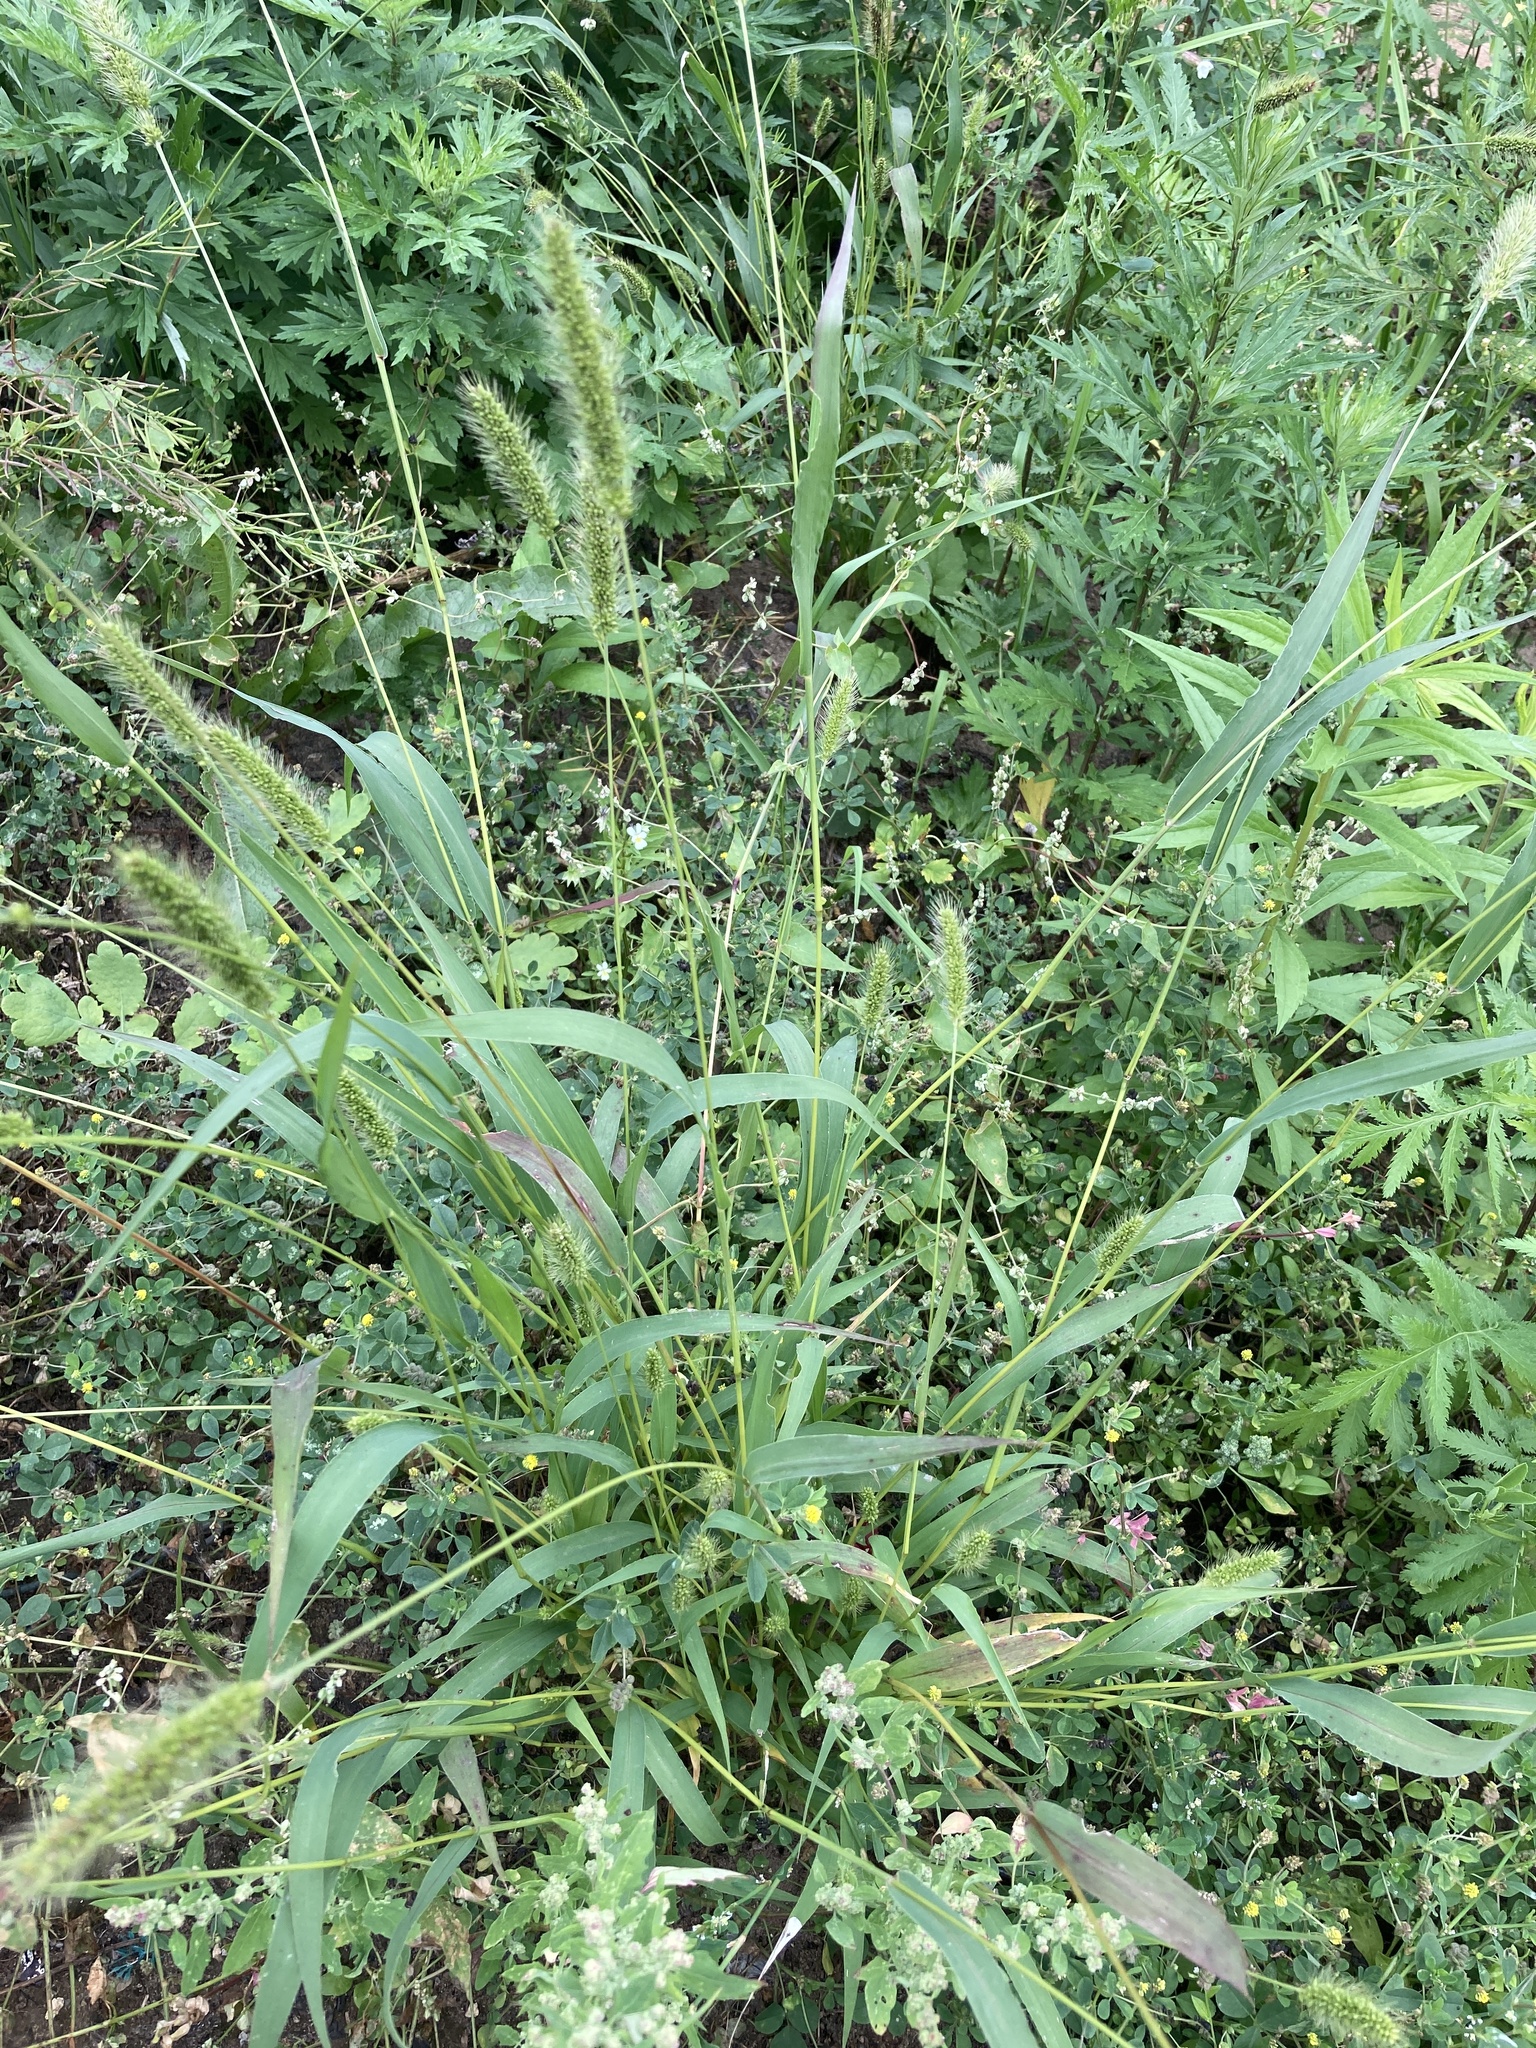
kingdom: Plantae
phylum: Tracheophyta
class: Liliopsida
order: Poales
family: Poaceae
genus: Setaria
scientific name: Setaria viridis
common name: Green bristlegrass
